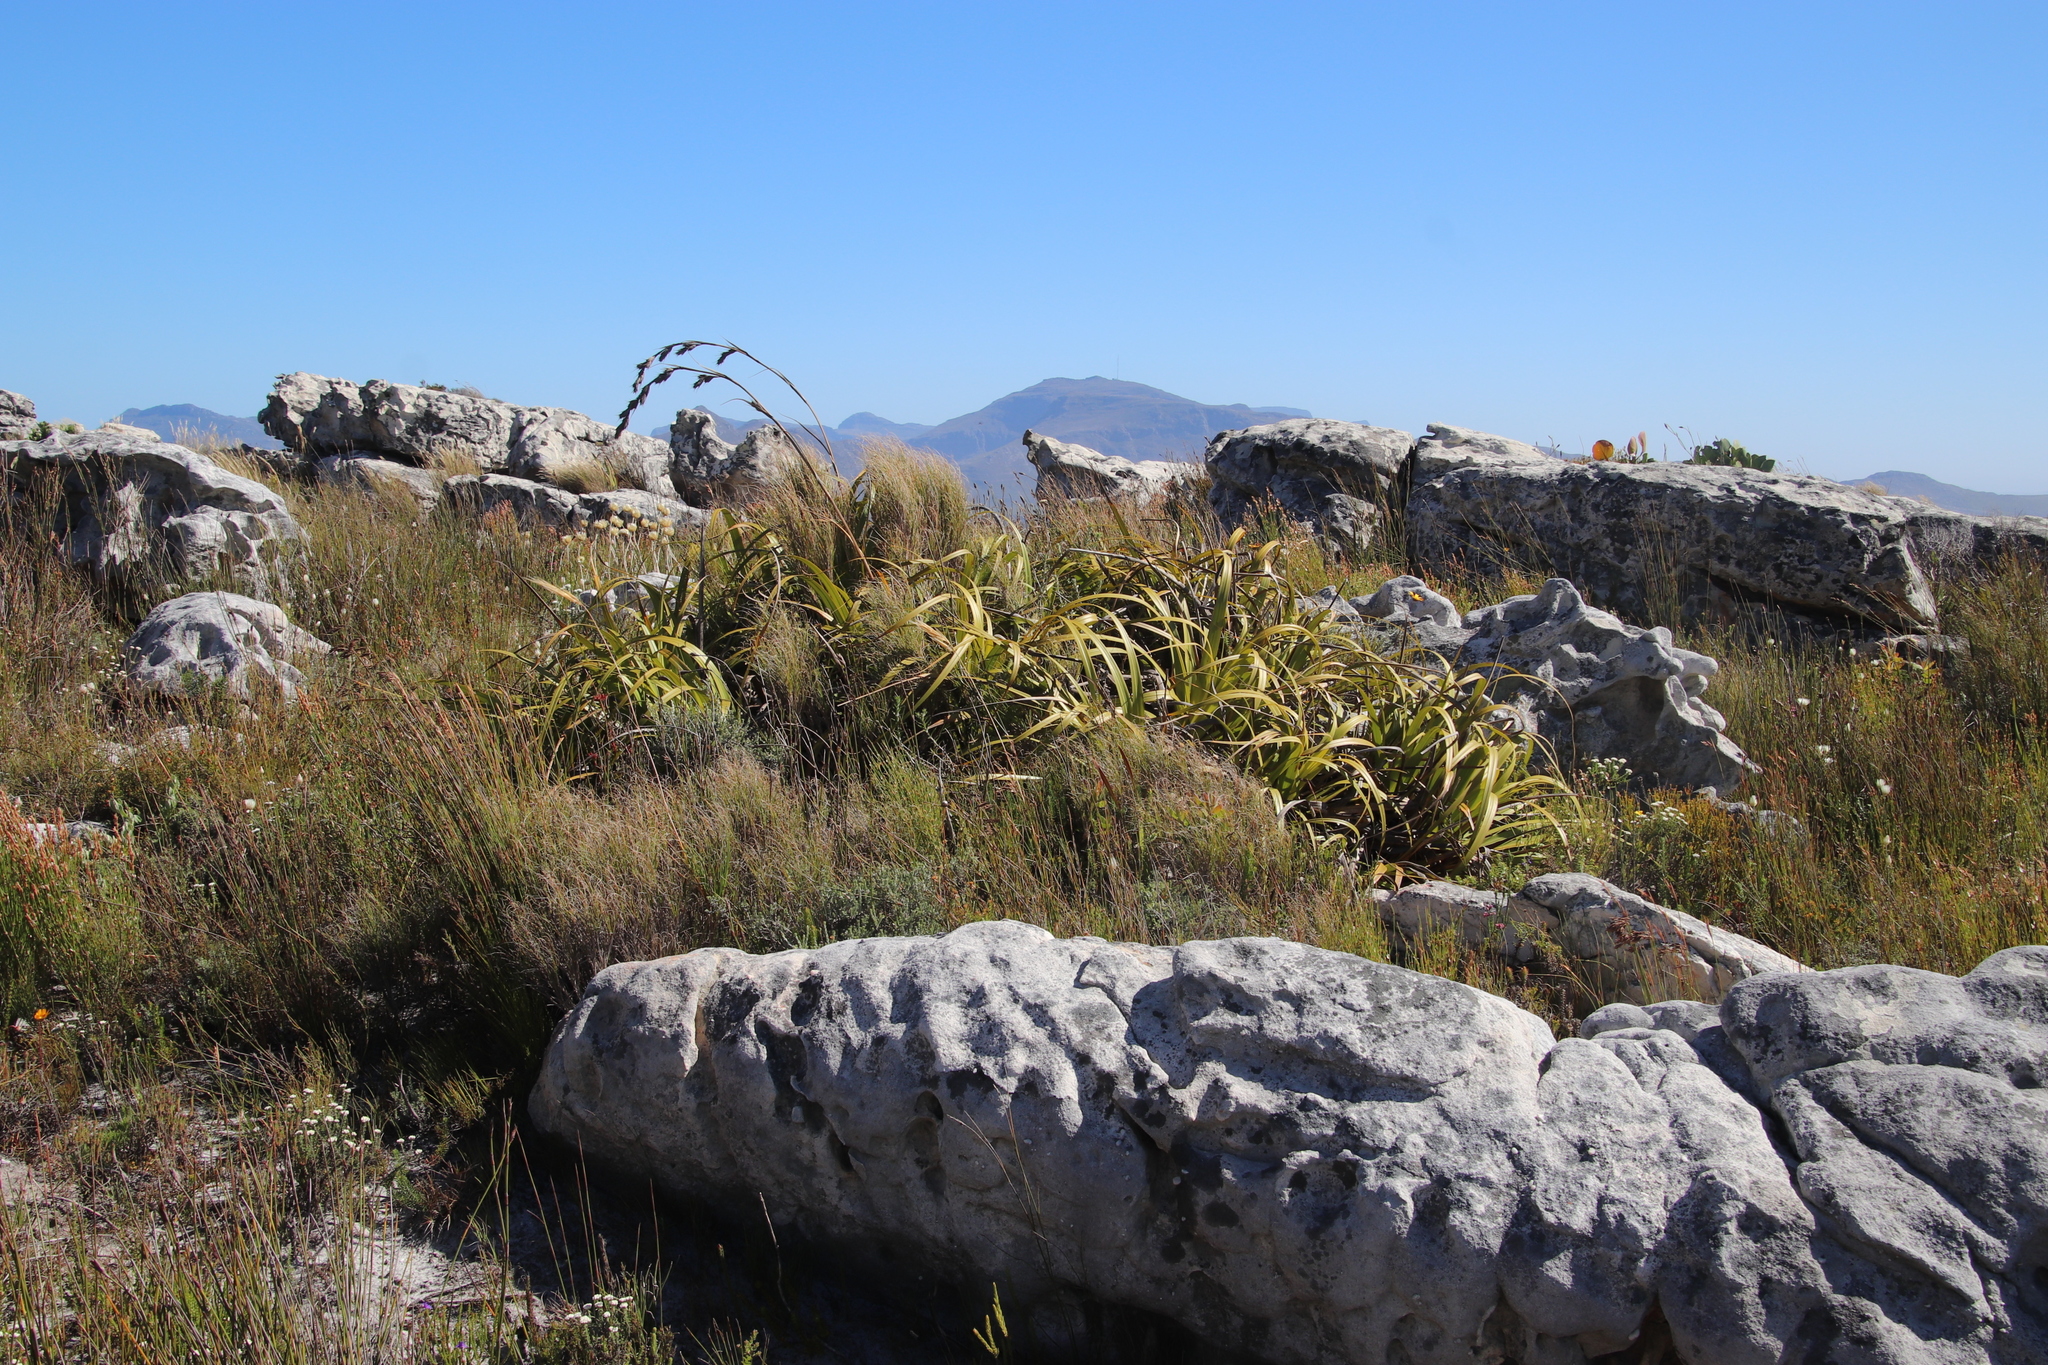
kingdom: Plantae
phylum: Tracheophyta
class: Liliopsida
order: Poales
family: Cyperaceae
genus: Tetraria
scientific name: Tetraria thermalis
